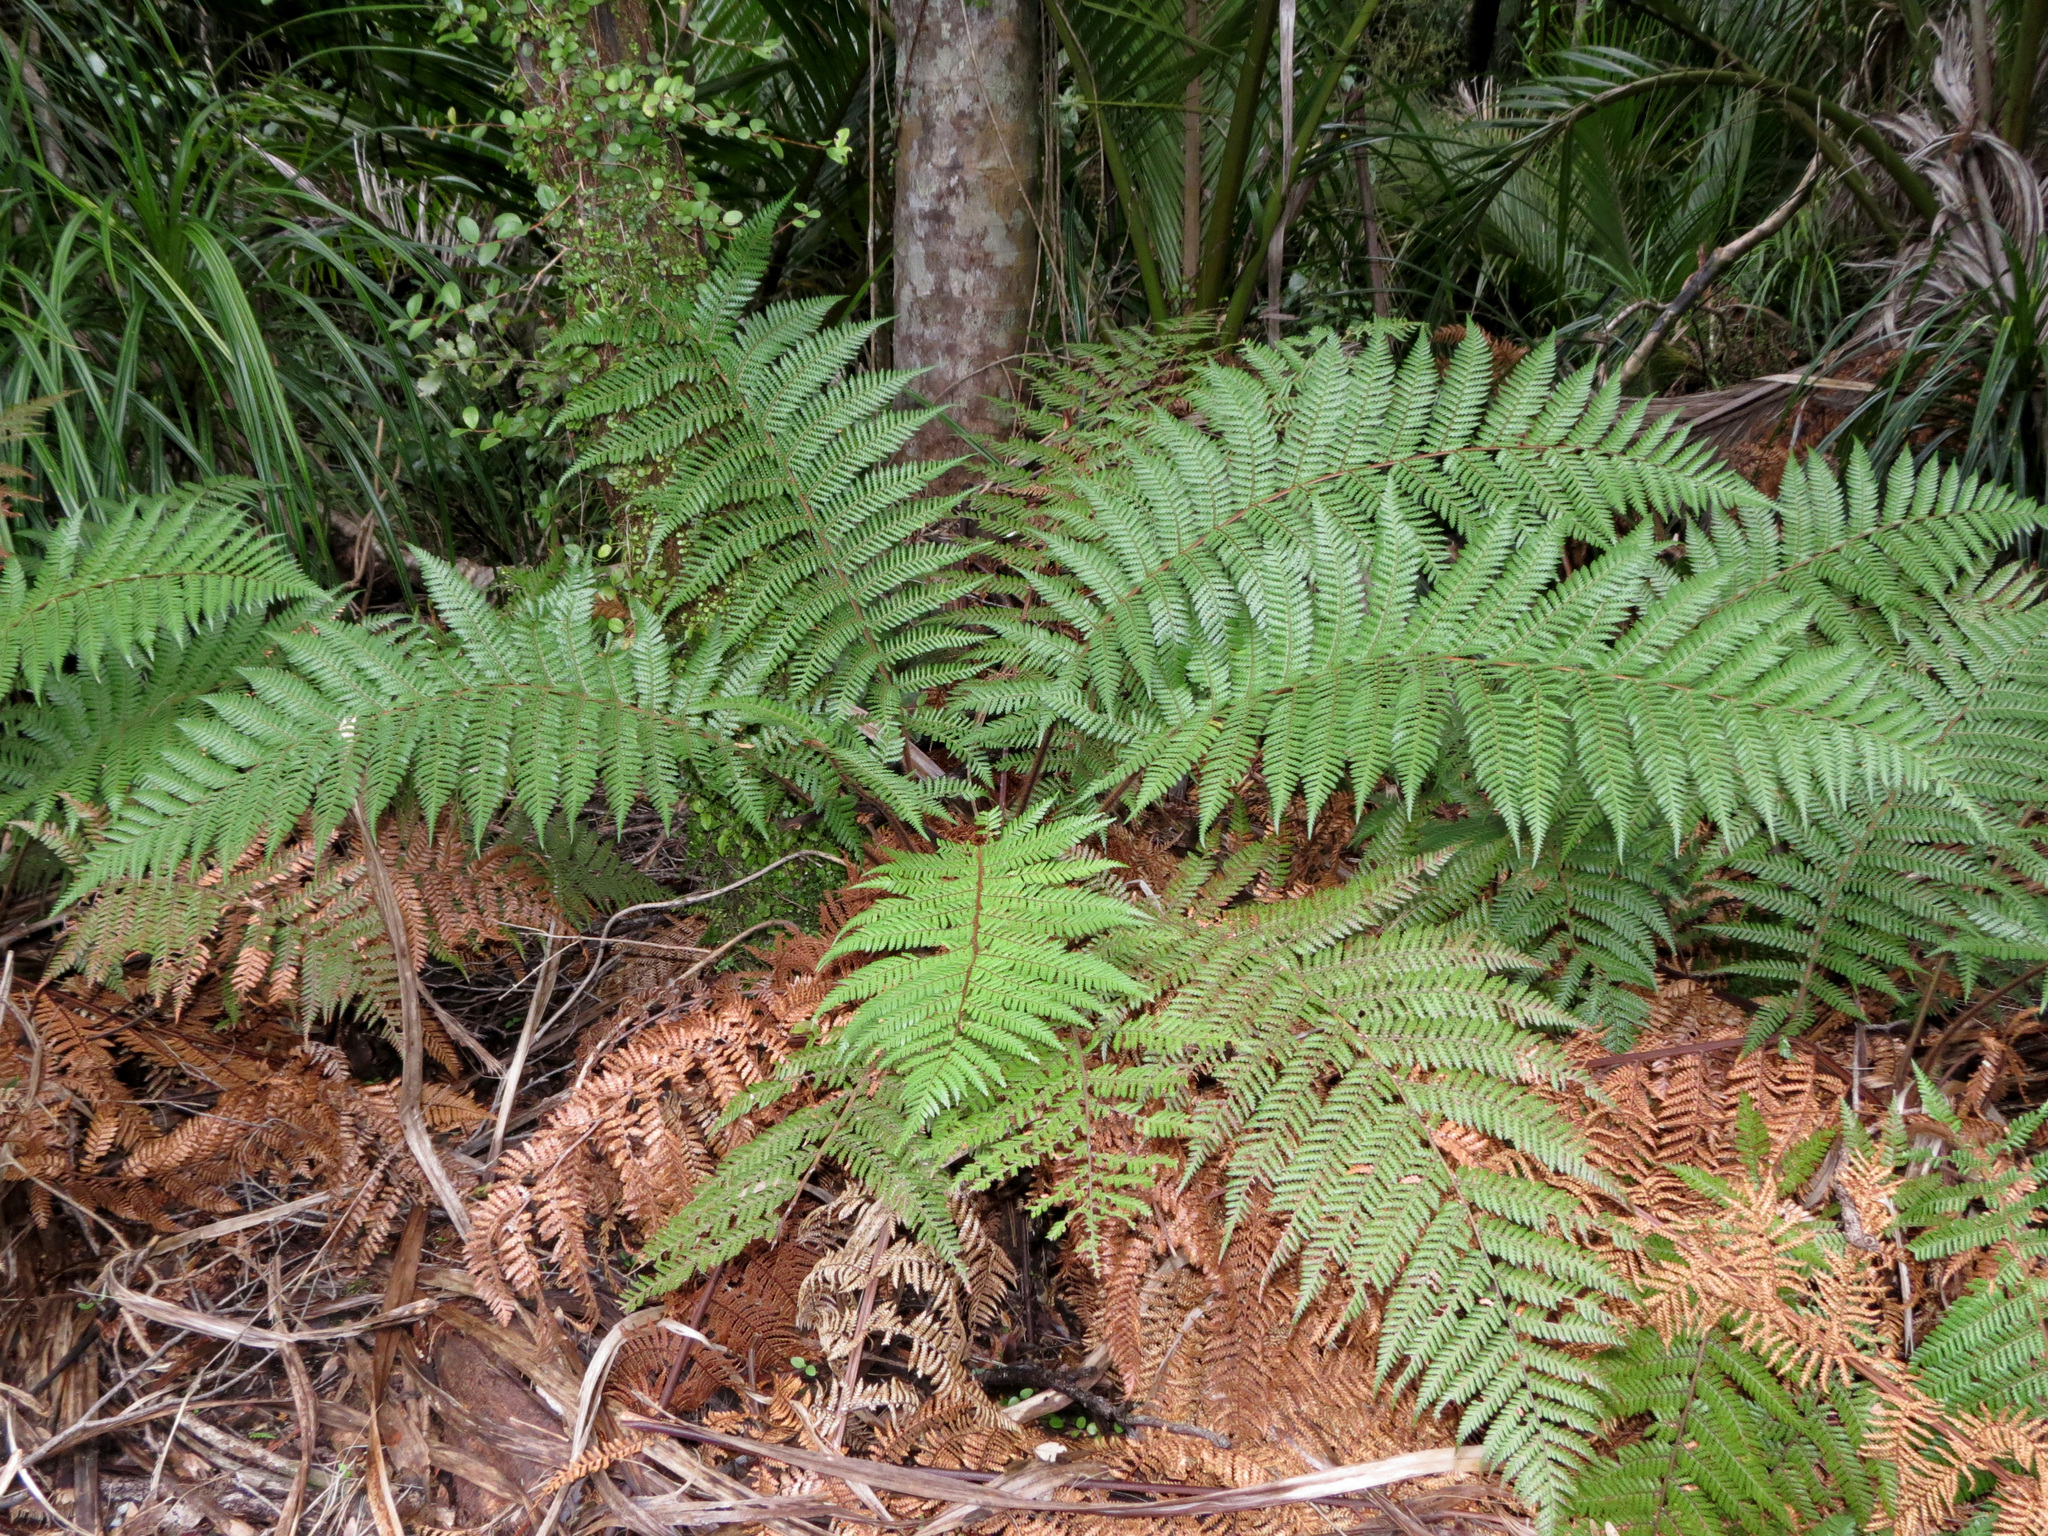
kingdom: Plantae
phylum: Tracheophyta
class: Polypodiopsida
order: Cyatheales
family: Dicksoniaceae
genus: Dicksonia
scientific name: Dicksonia squarrosa
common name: Hard treefern
